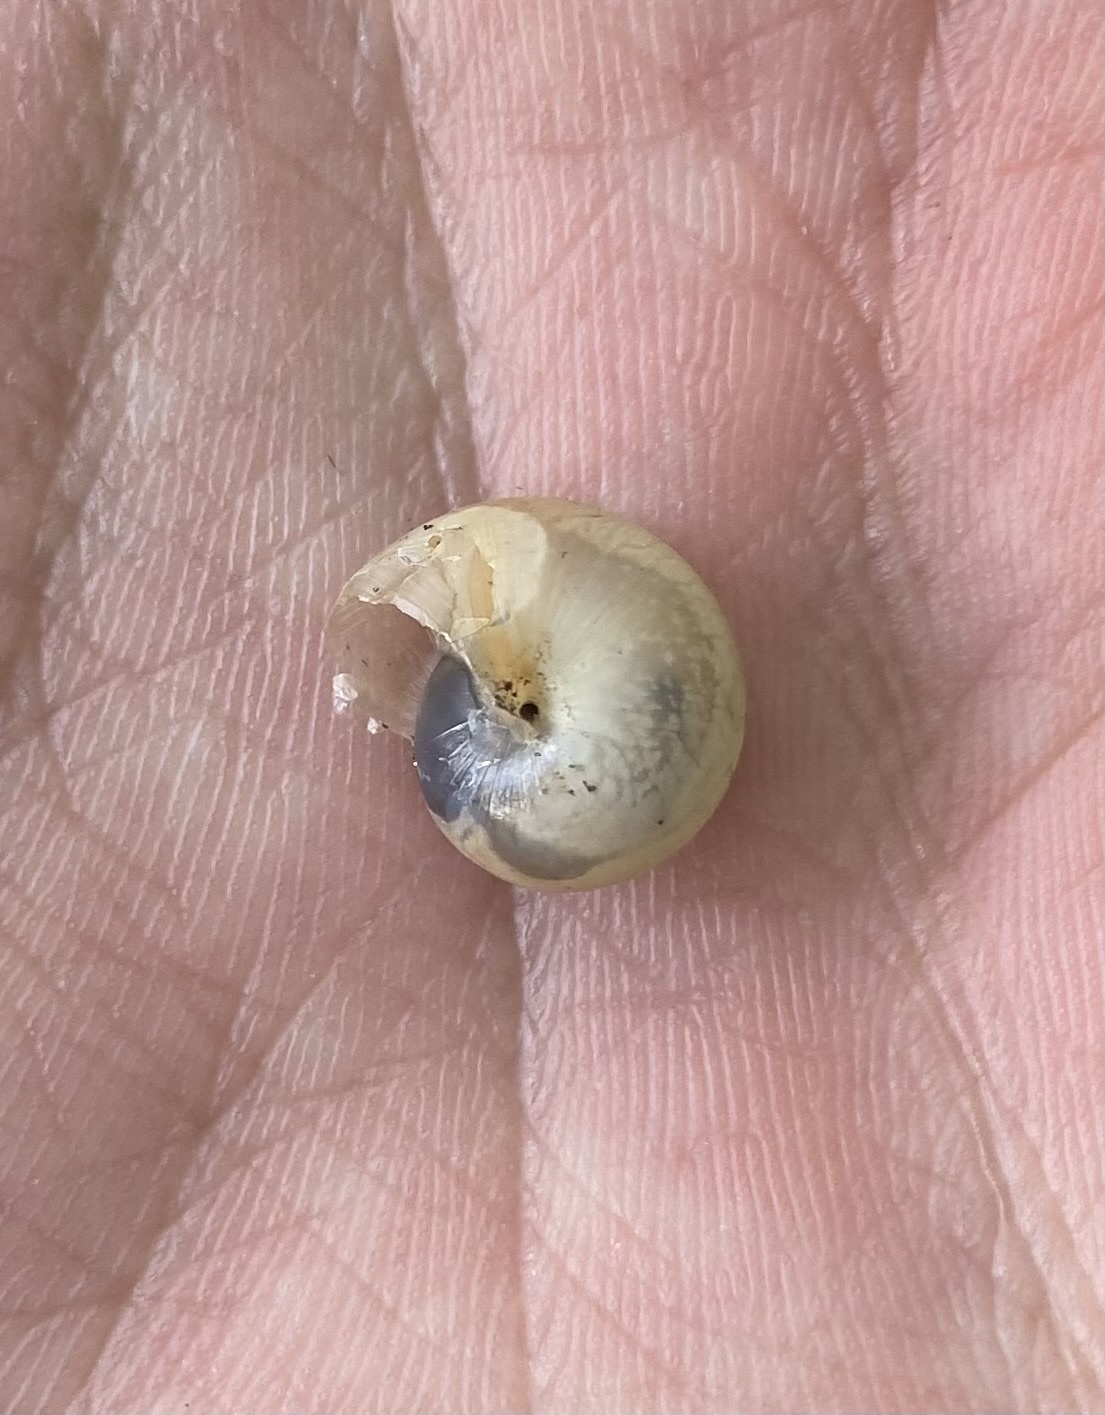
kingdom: Animalia
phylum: Mollusca
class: Gastropoda
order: Stylommatophora
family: Hygromiidae
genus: Monacha
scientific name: Monacha cartusiana
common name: Carthusian snail
